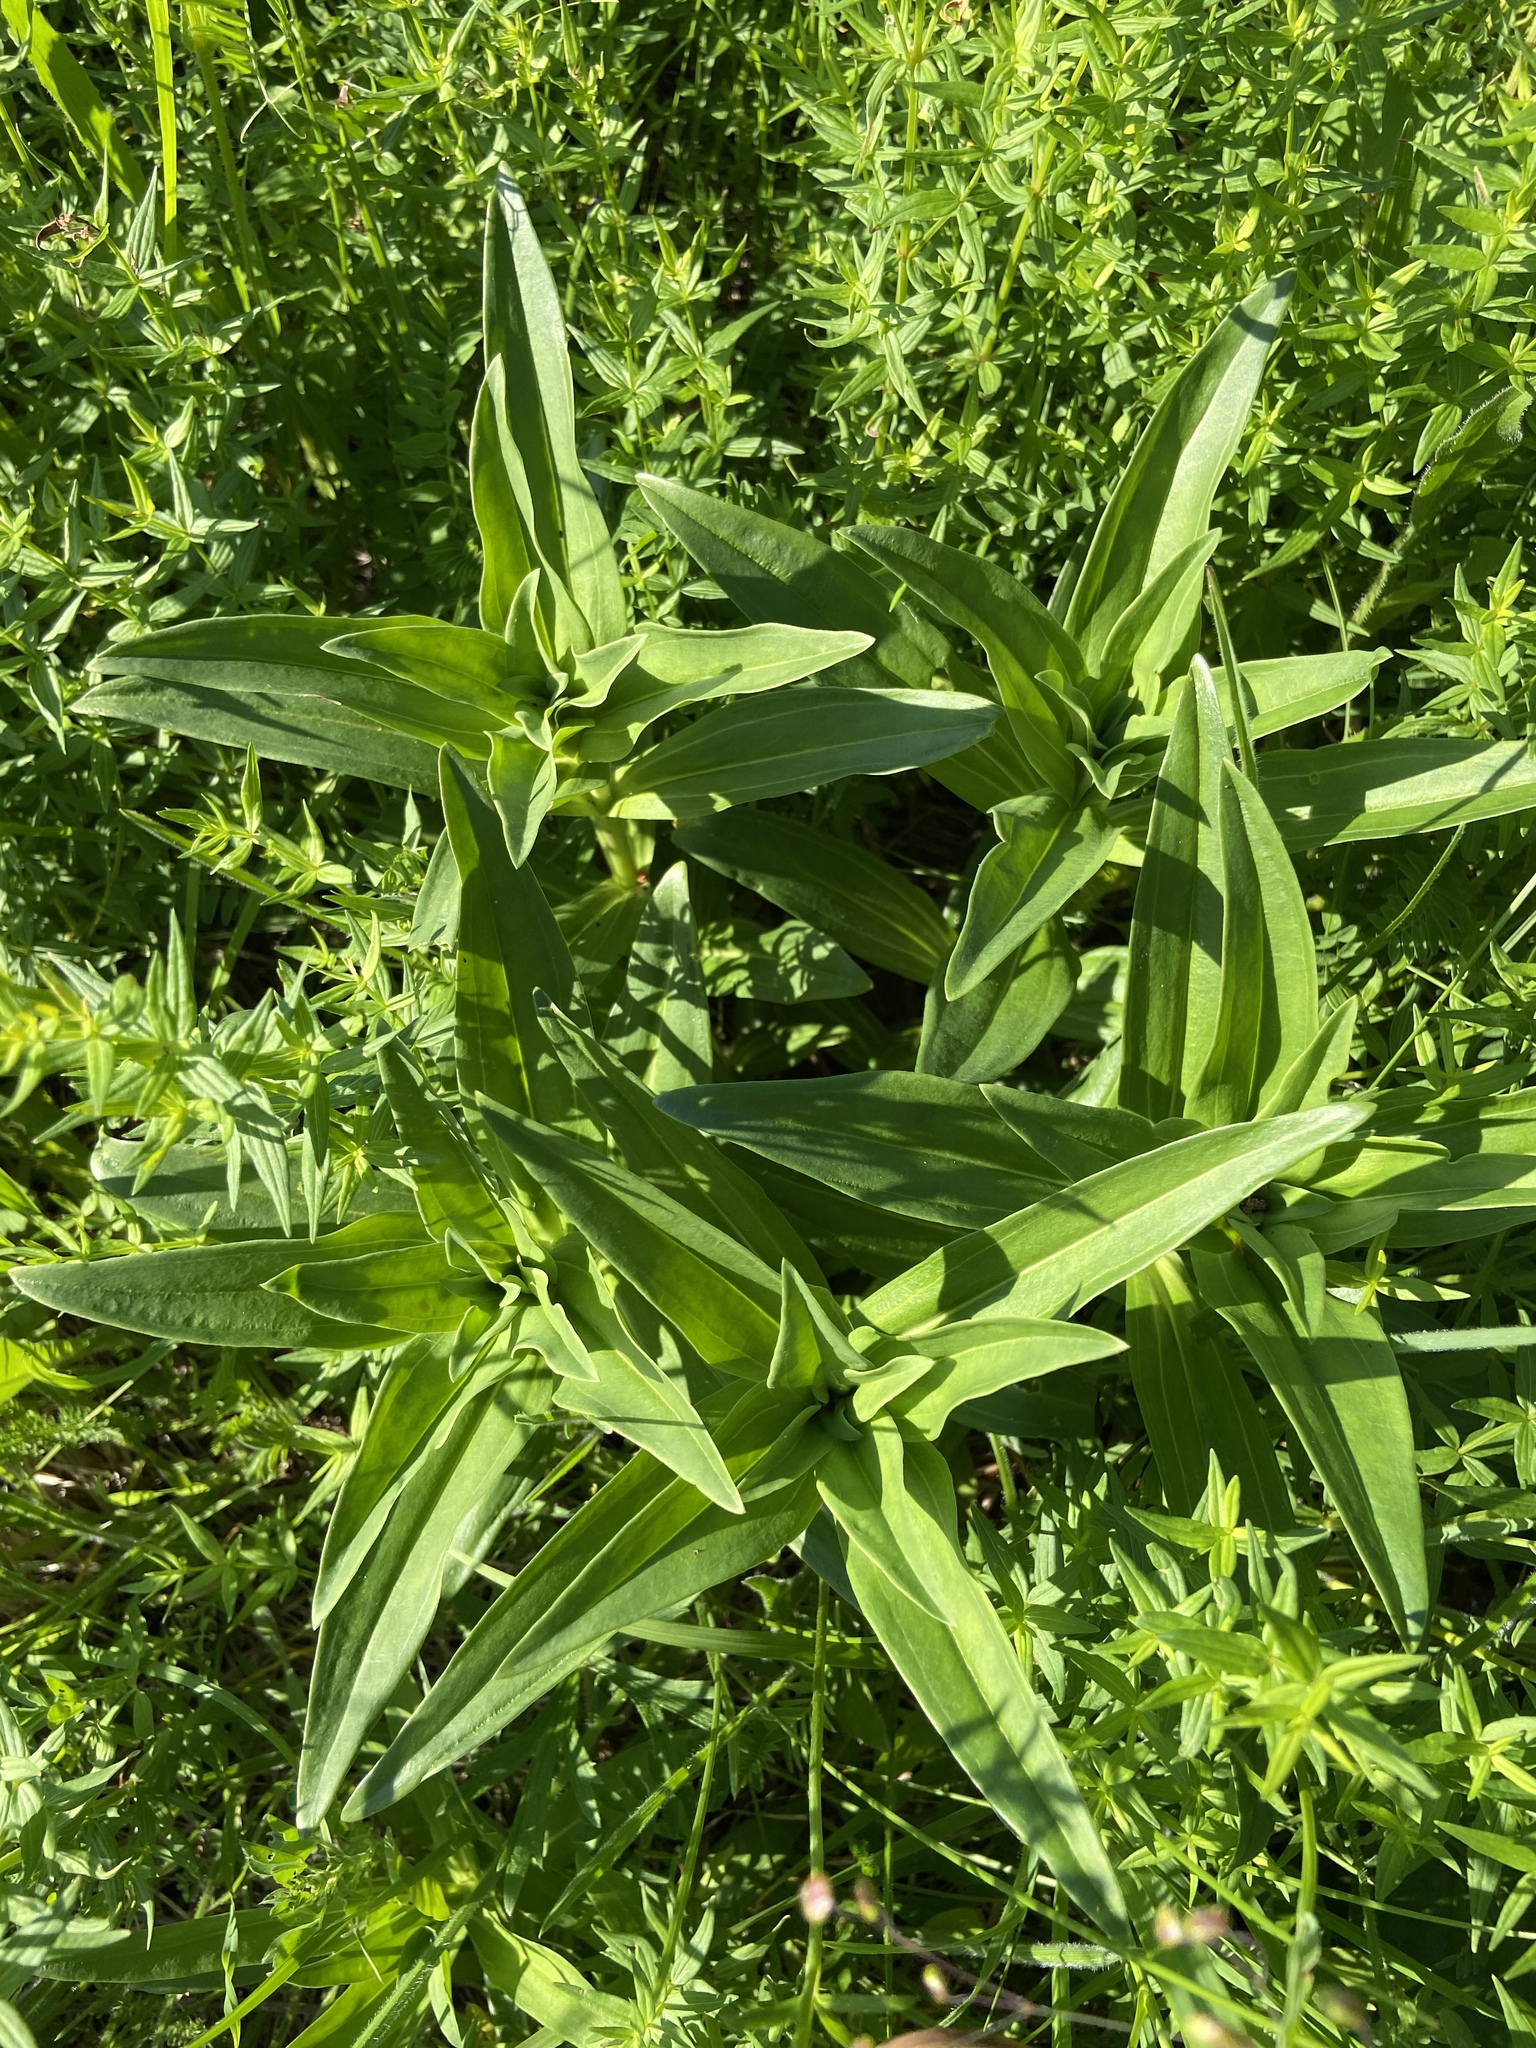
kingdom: Plantae
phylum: Tracheophyta
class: Magnoliopsida
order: Gentianales
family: Gentianaceae
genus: Gentiana
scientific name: Gentiana cruciata
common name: Cross gentian
